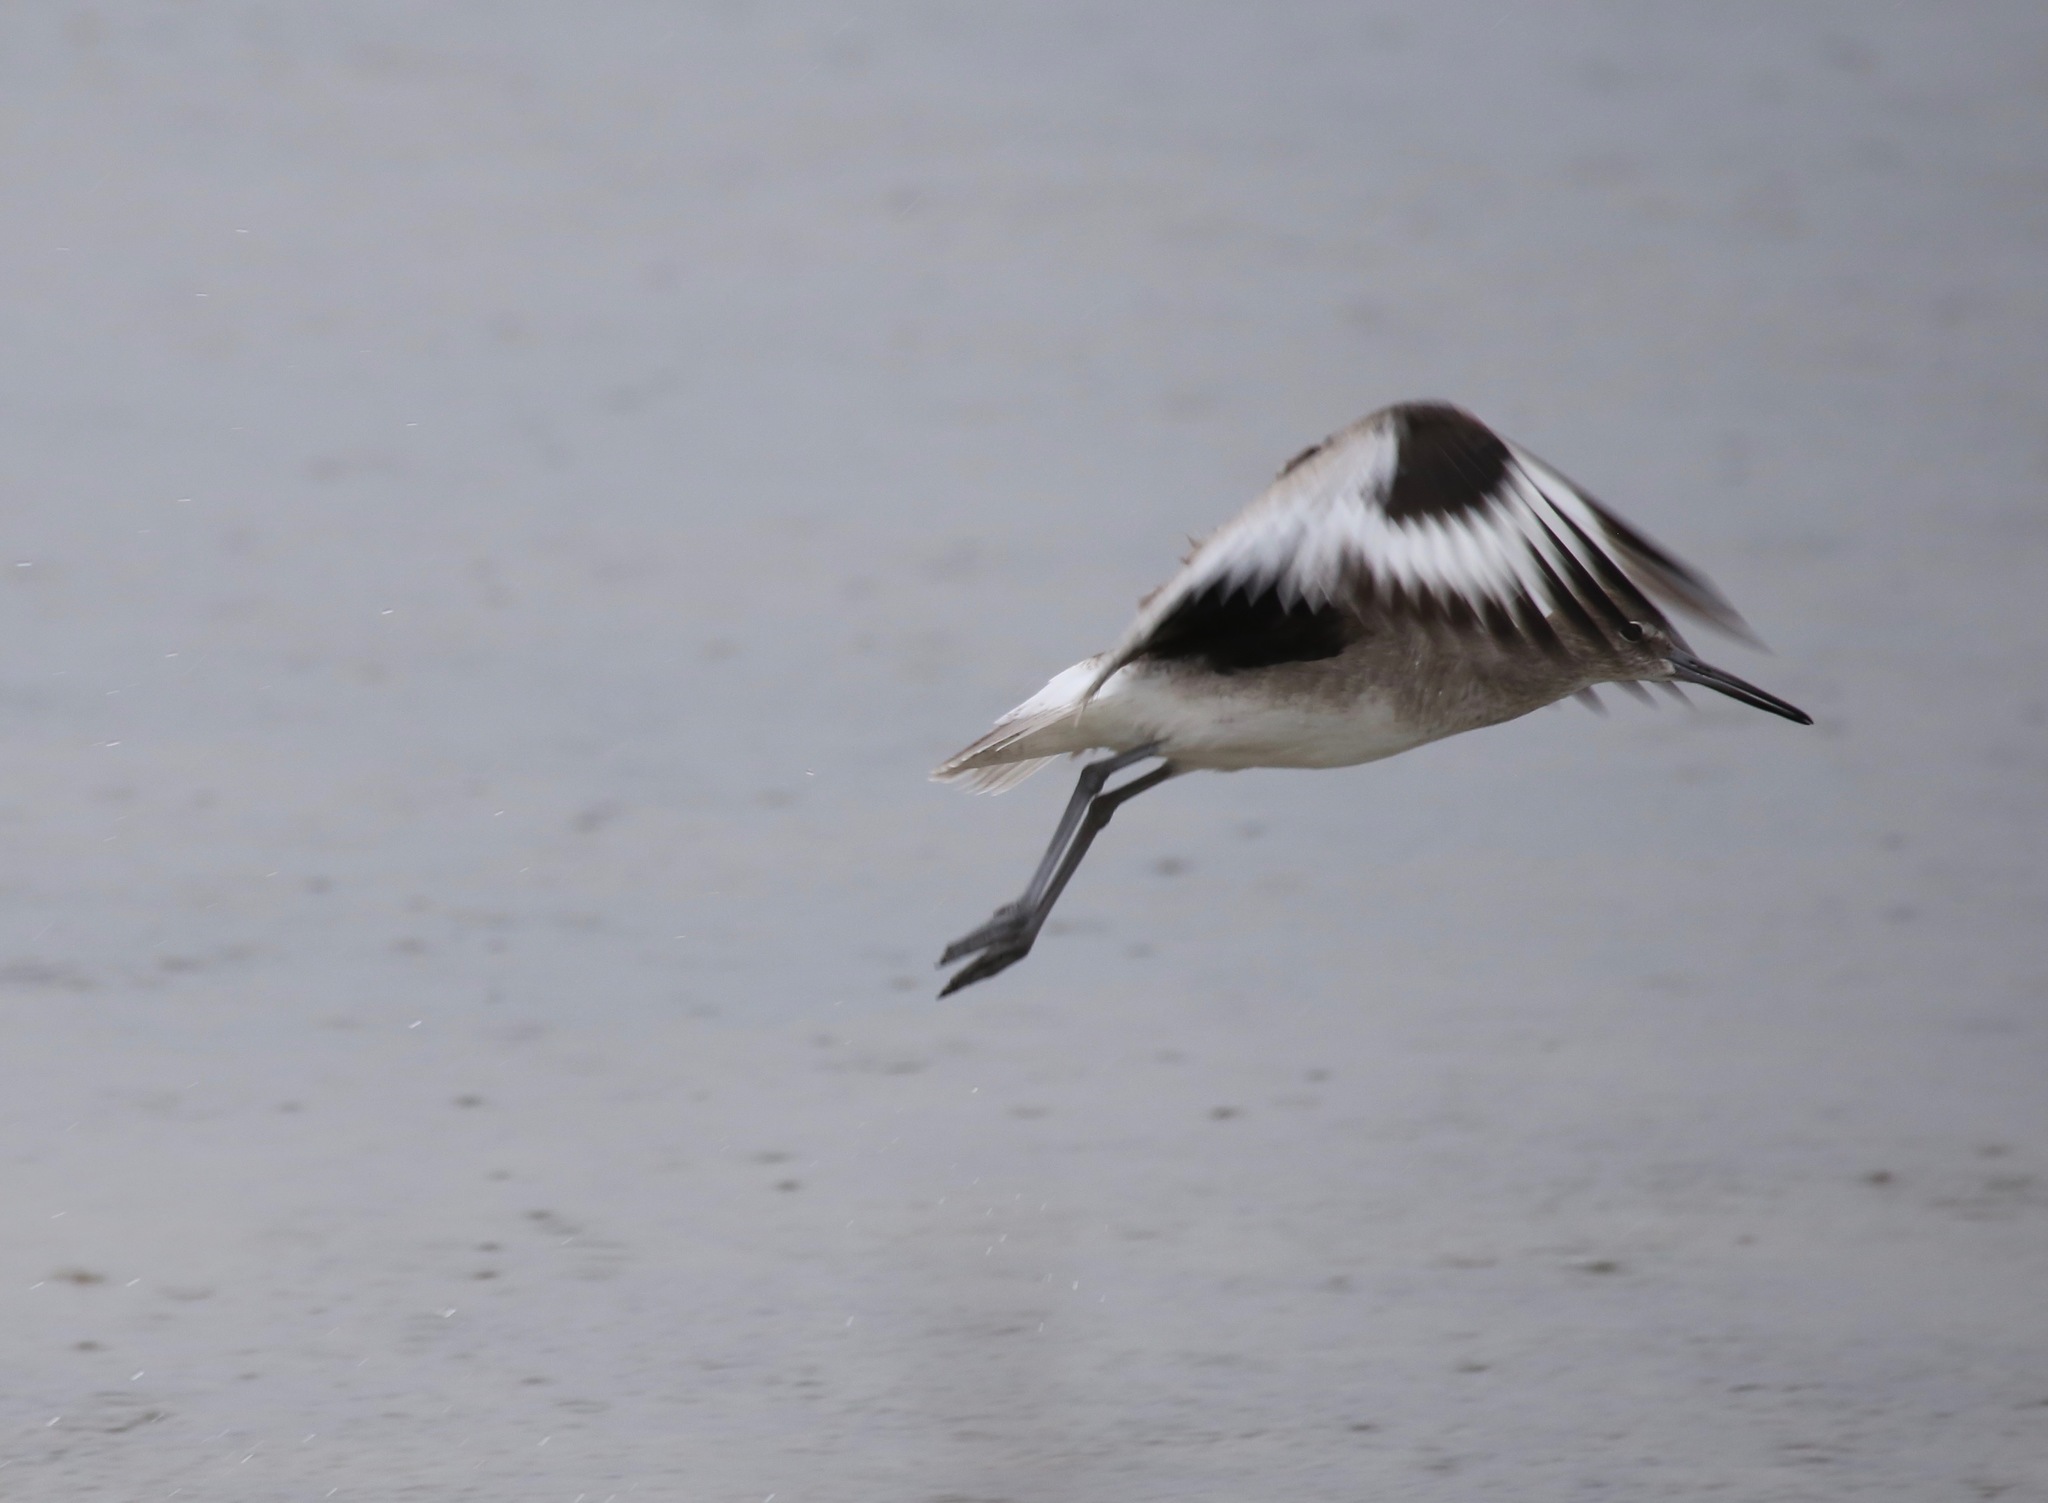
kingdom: Animalia
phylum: Chordata
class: Aves
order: Charadriiformes
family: Scolopacidae
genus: Tringa
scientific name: Tringa semipalmata
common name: Willet
